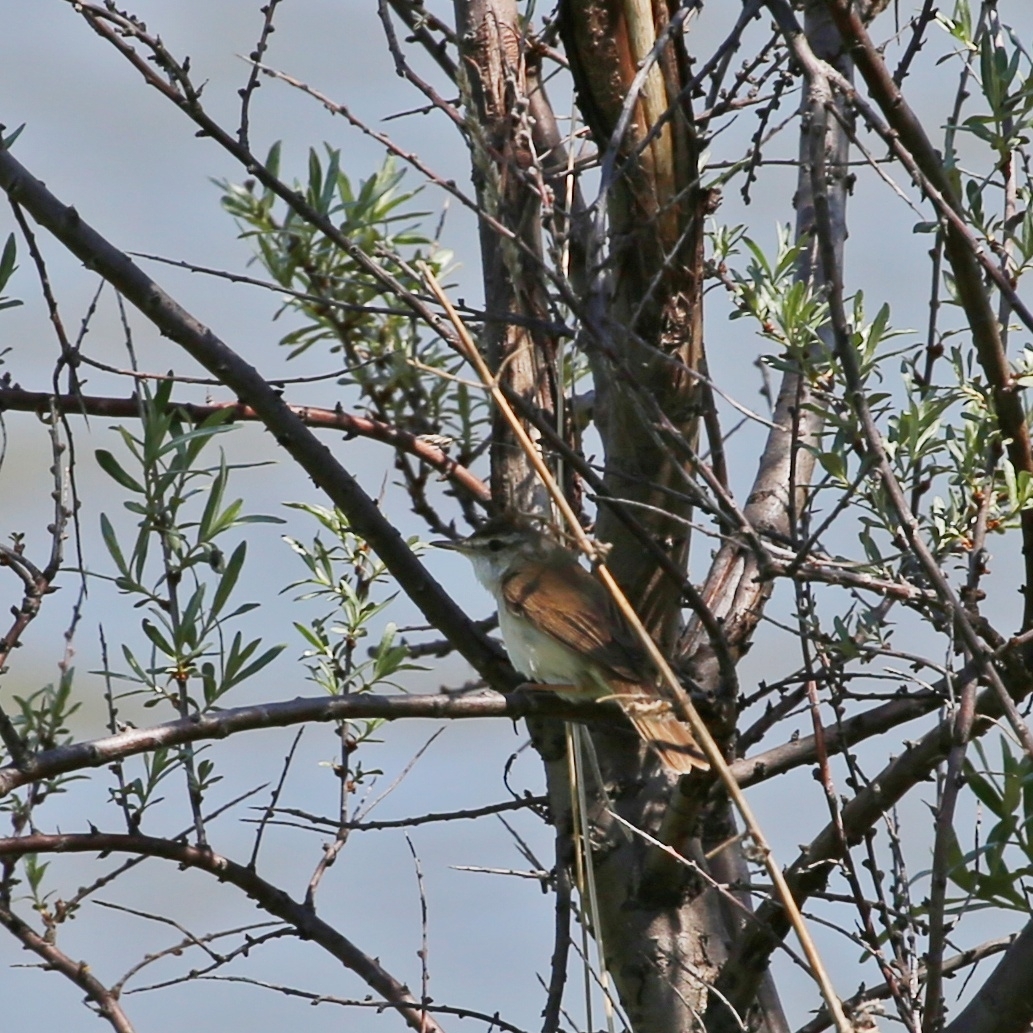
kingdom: Animalia
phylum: Chordata
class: Aves
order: Passeriformes
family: Acrocephalidae
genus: Acrocephalus
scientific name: Acrocephalus agricola
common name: Paddyfield warbler
